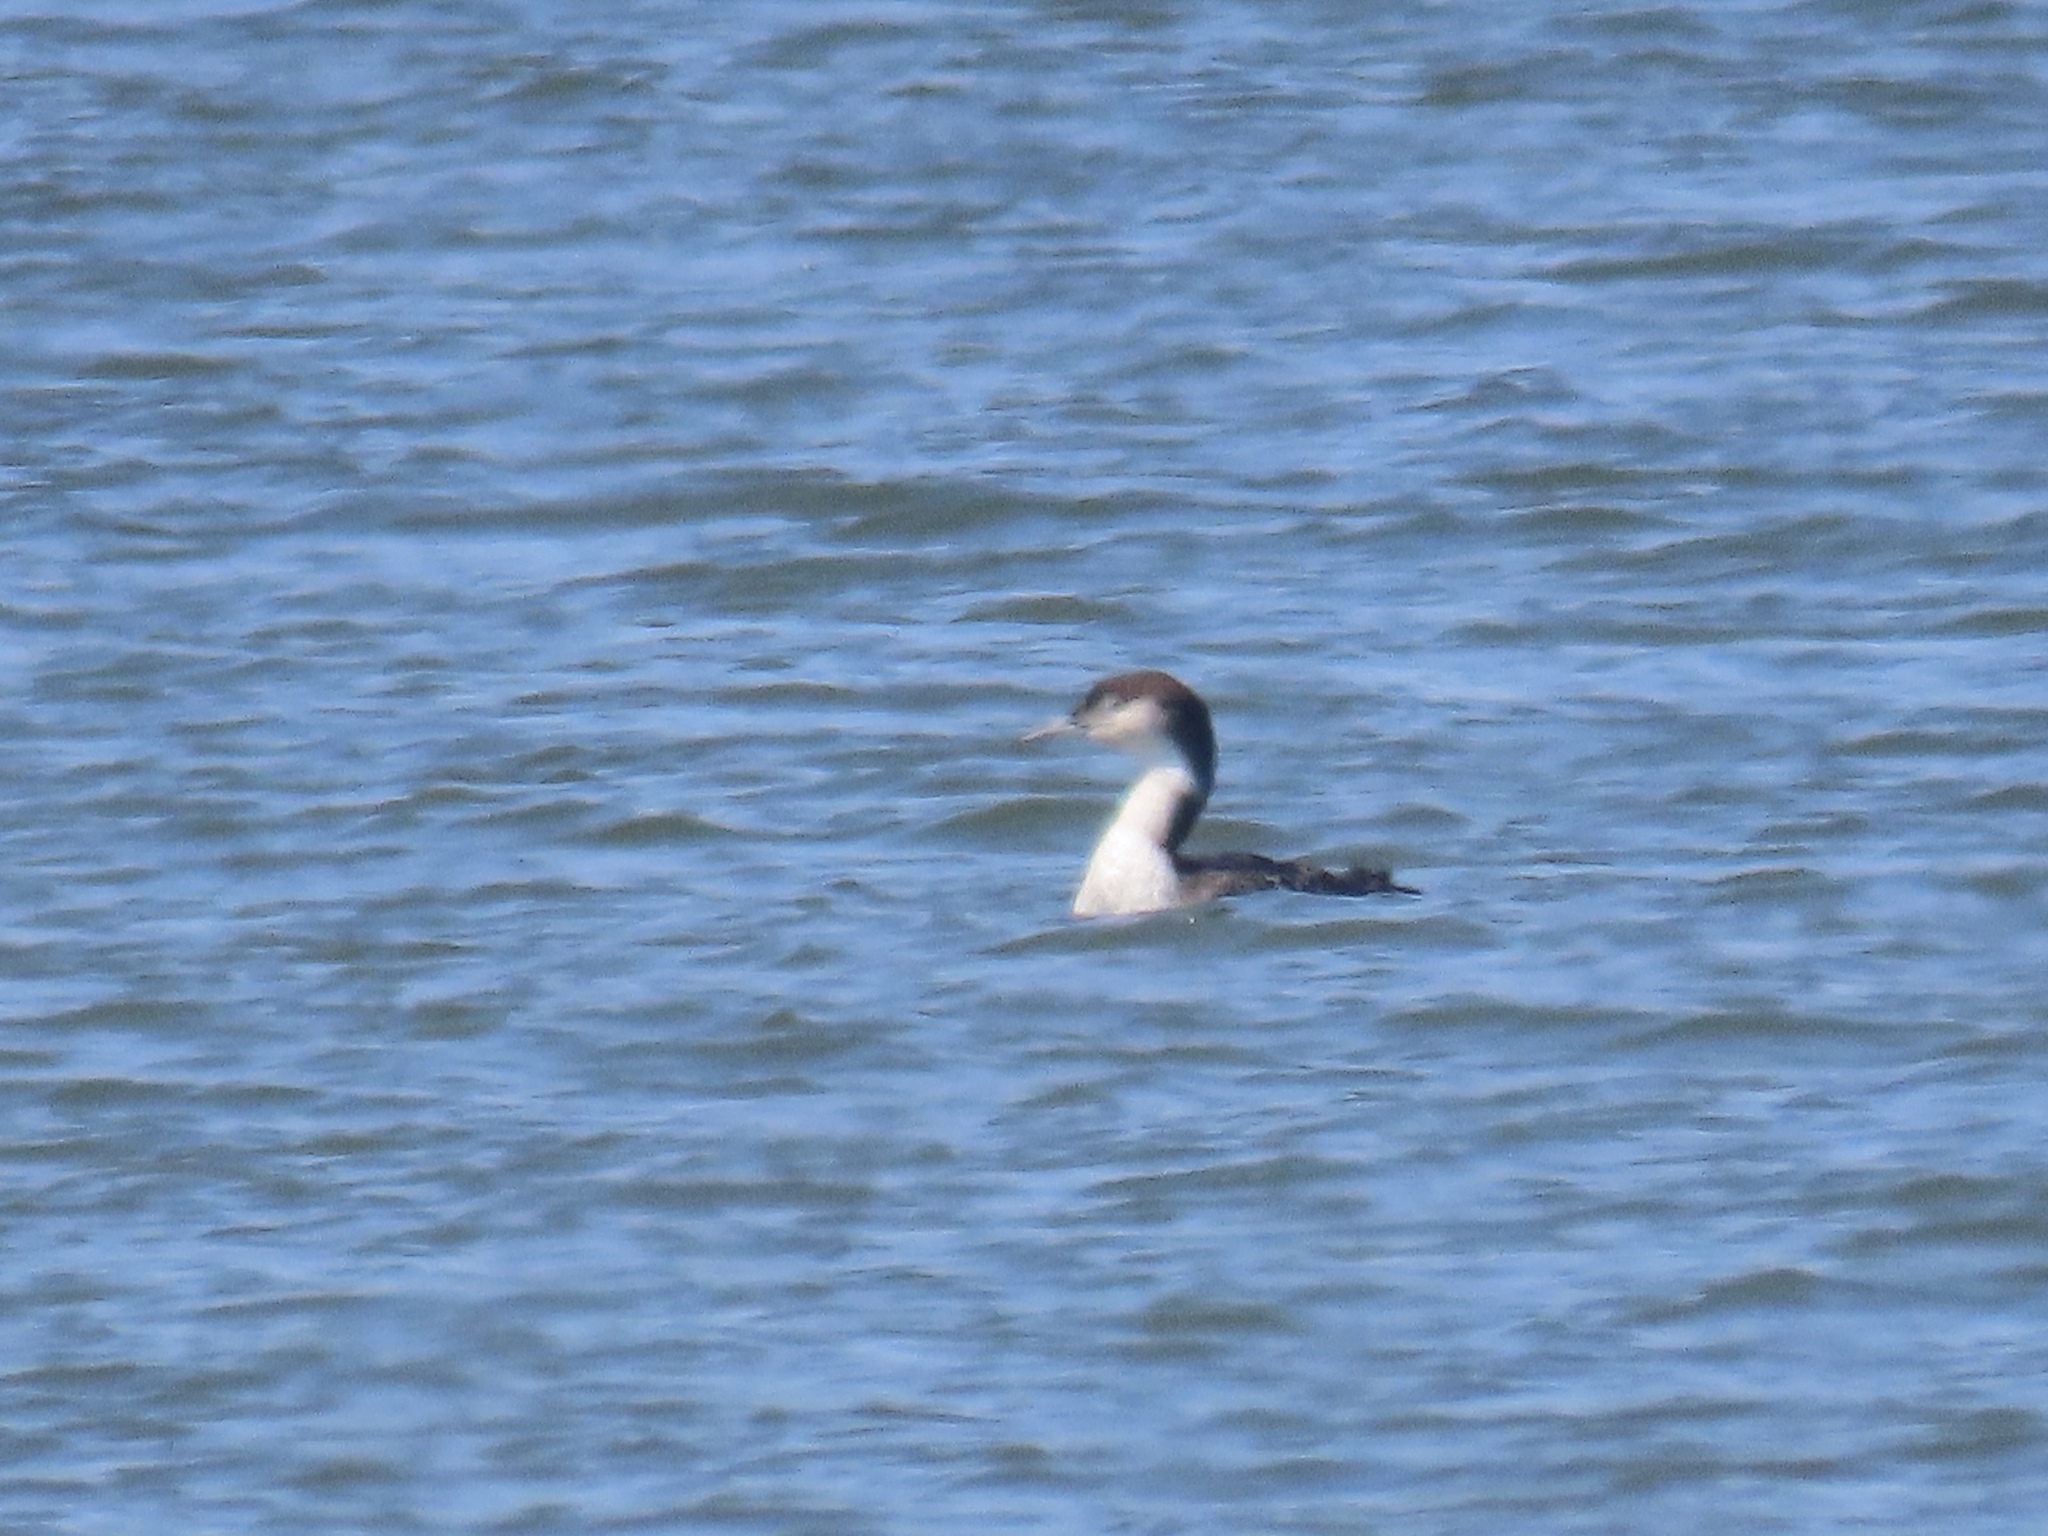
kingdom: Animalia
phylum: Chordata
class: Aves
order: Gaviiformes
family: Gaviidae
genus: Gavia
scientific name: Gavia immer
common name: Common loon
